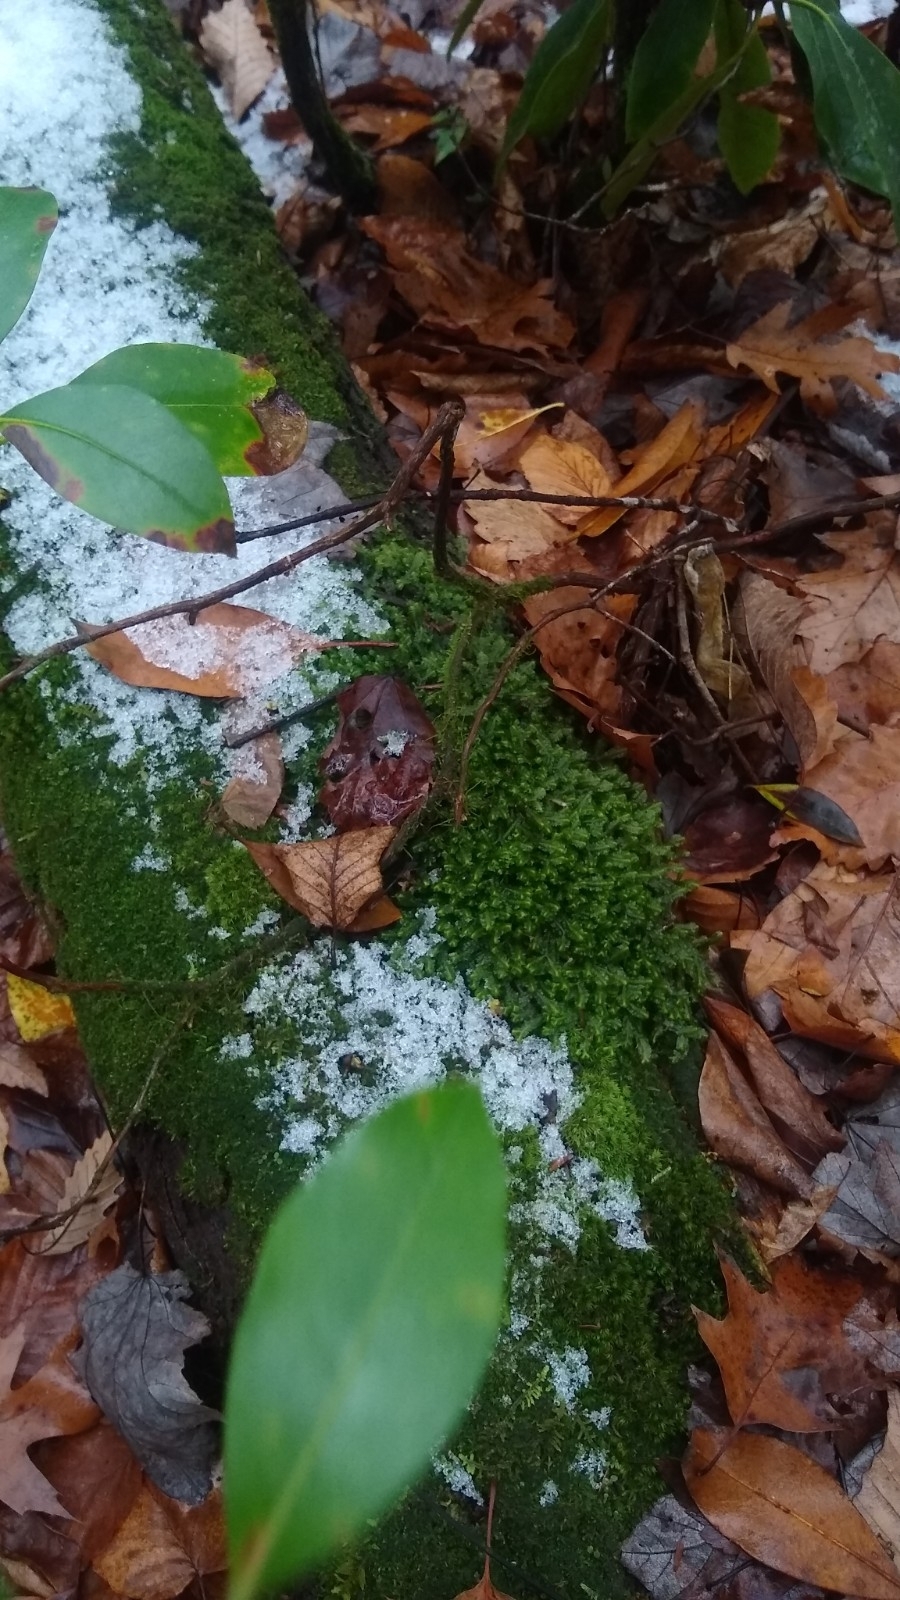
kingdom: Plantae
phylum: Marchantiophyta
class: Jungermanniopsida
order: Jungermanniales
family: Lepidoziaceae
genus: Bazzania
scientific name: Bazzania trilobata
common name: Three-lobed whipwort
